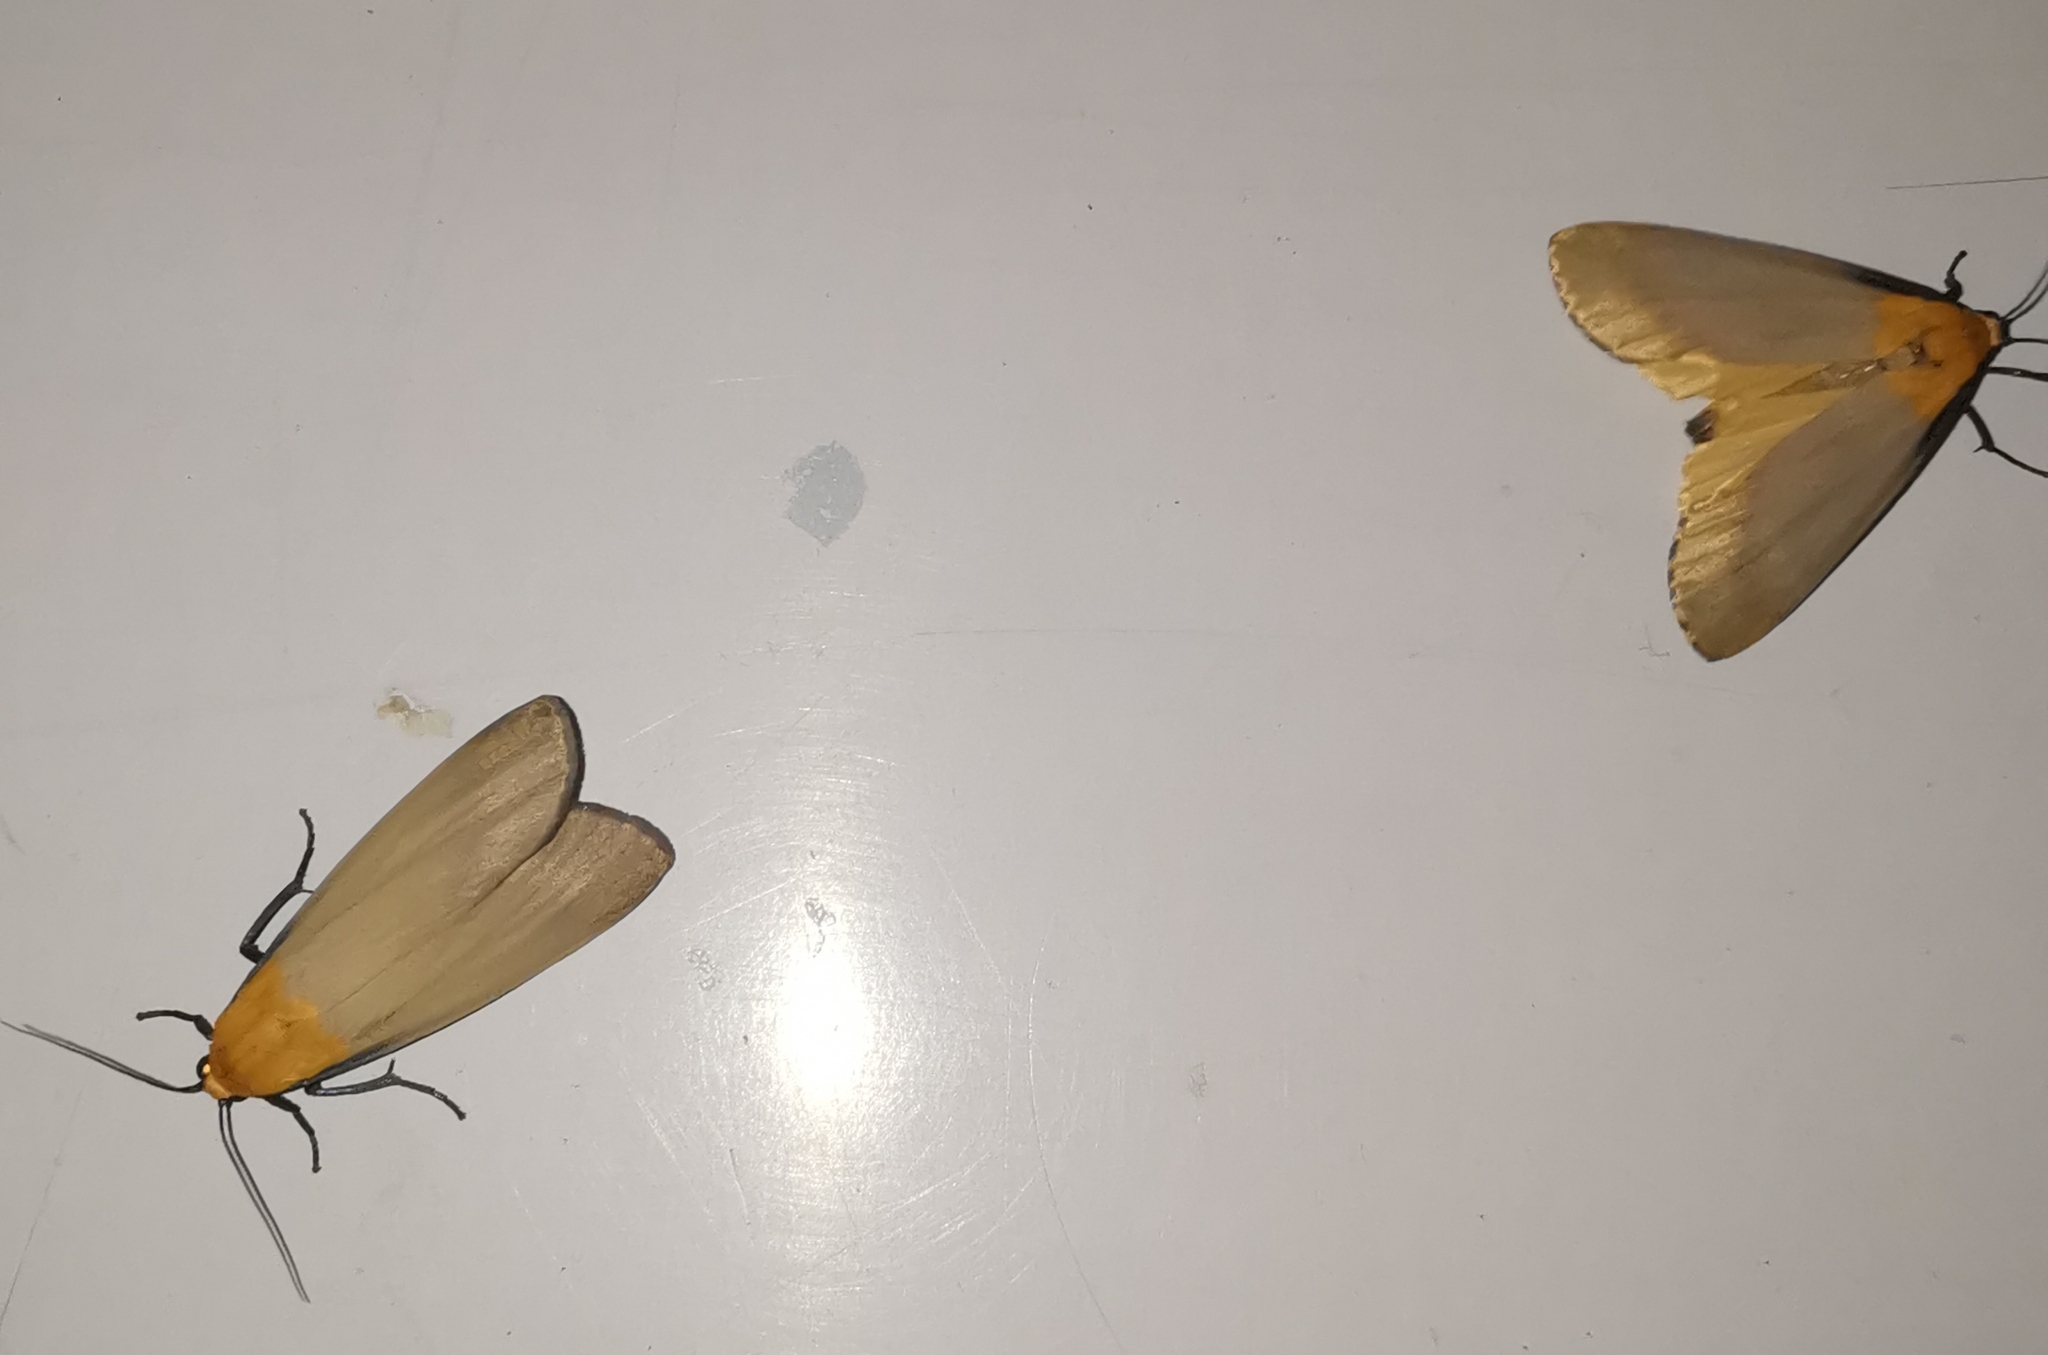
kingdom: Animalia
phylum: Arthropoda
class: Insecta
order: Lepidoptera
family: Erebidae
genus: Lithosia
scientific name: Lithosia quadra
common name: Four-spotted footman
